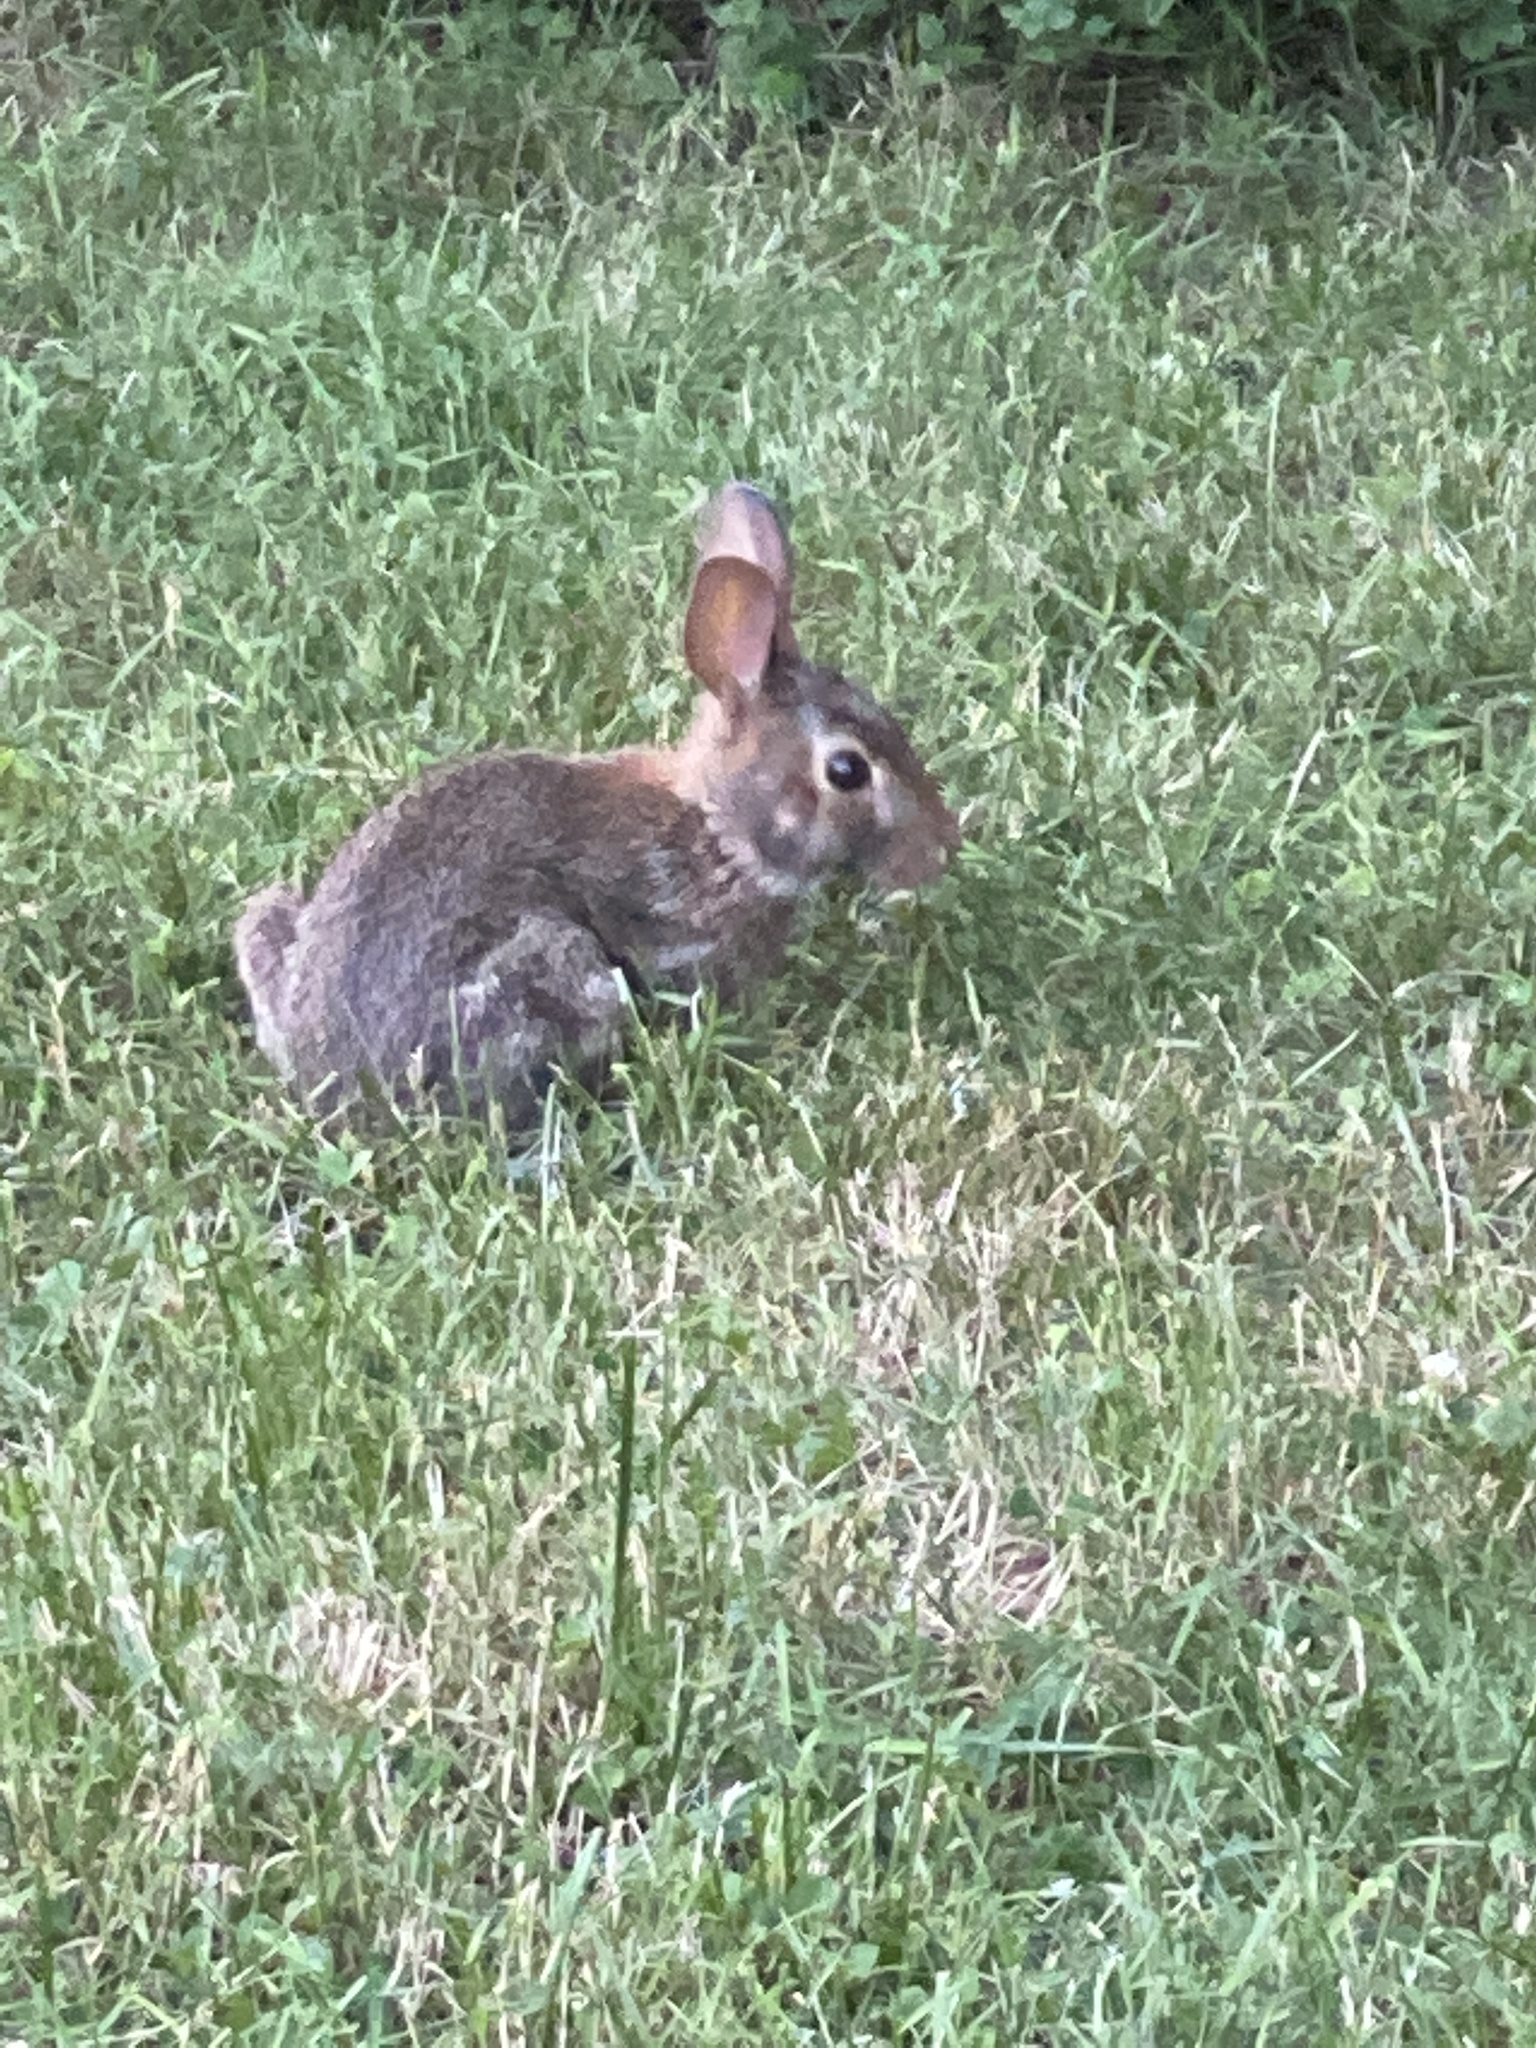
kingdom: Animalia
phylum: Chordata
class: Mammalia
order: Lagomorpha
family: Leporidae
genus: Sylvilagus
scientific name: Sylvilagus floridanus
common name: Eastern cottontail
